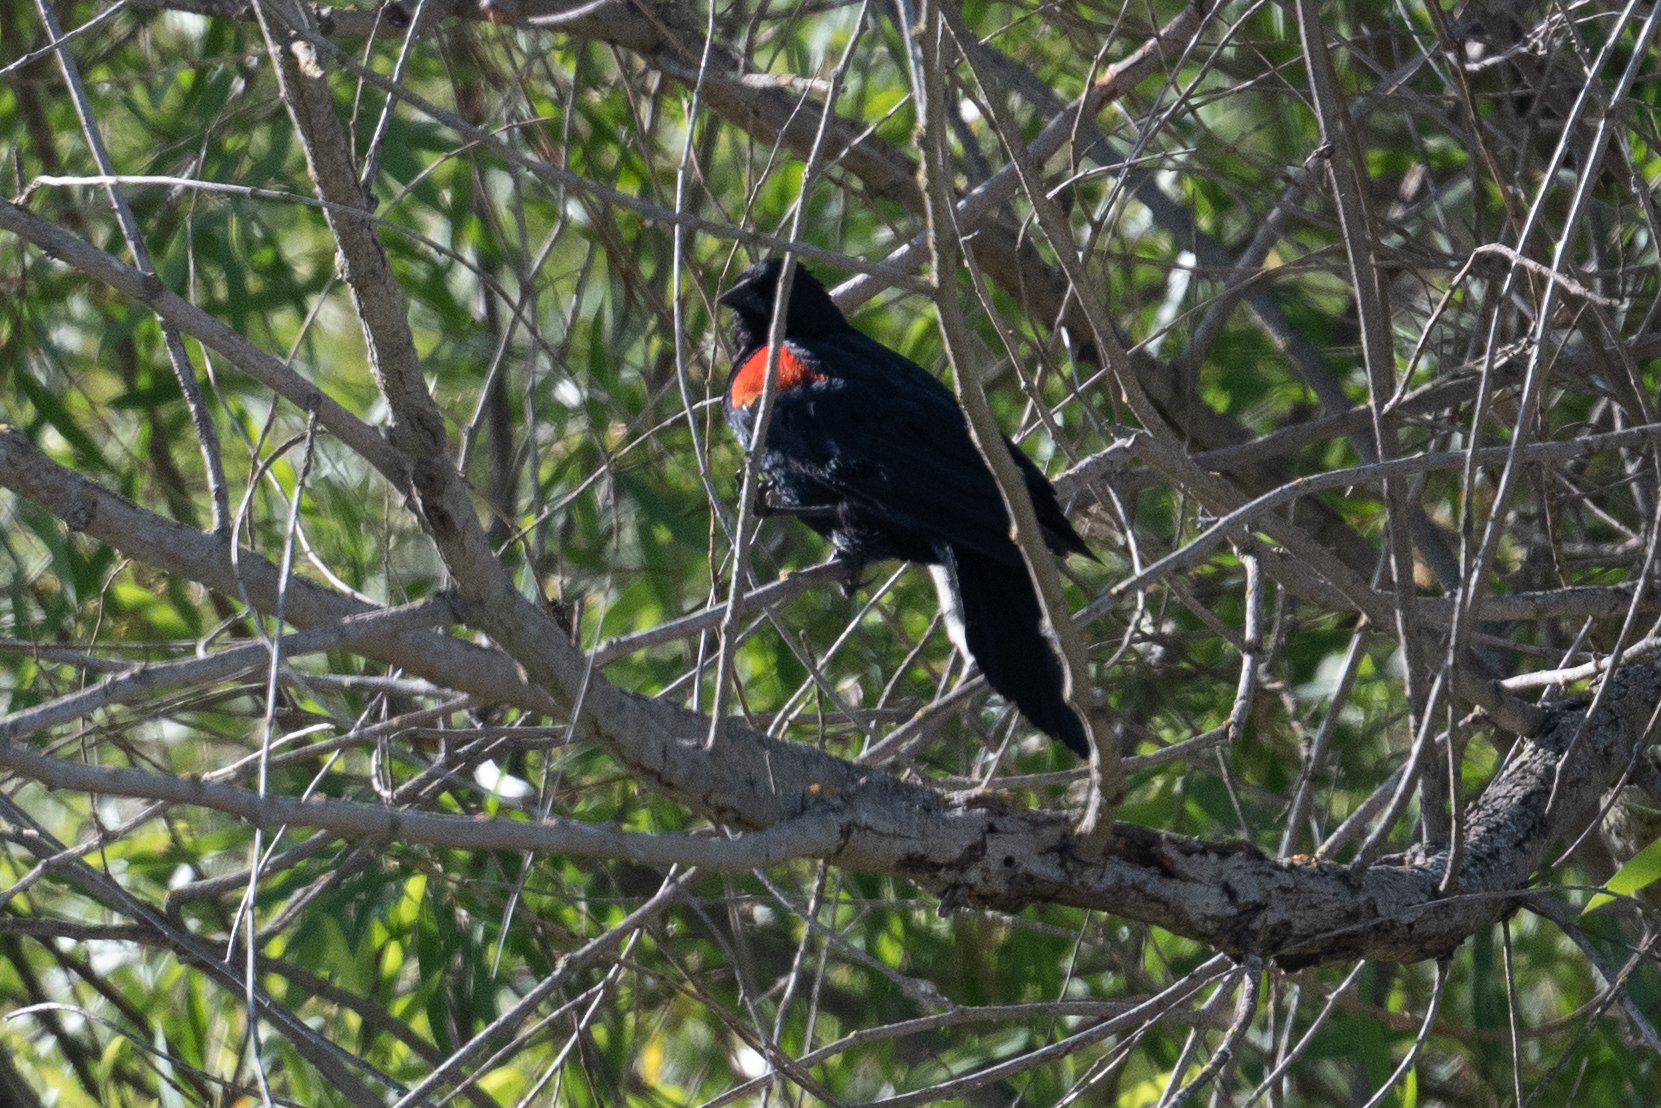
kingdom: Animalia
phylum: Chordata
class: Aves
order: Passeriformes
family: Icteridae
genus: Agelaius
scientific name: Agelaius phoeniceus
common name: Red-winged blackbird
